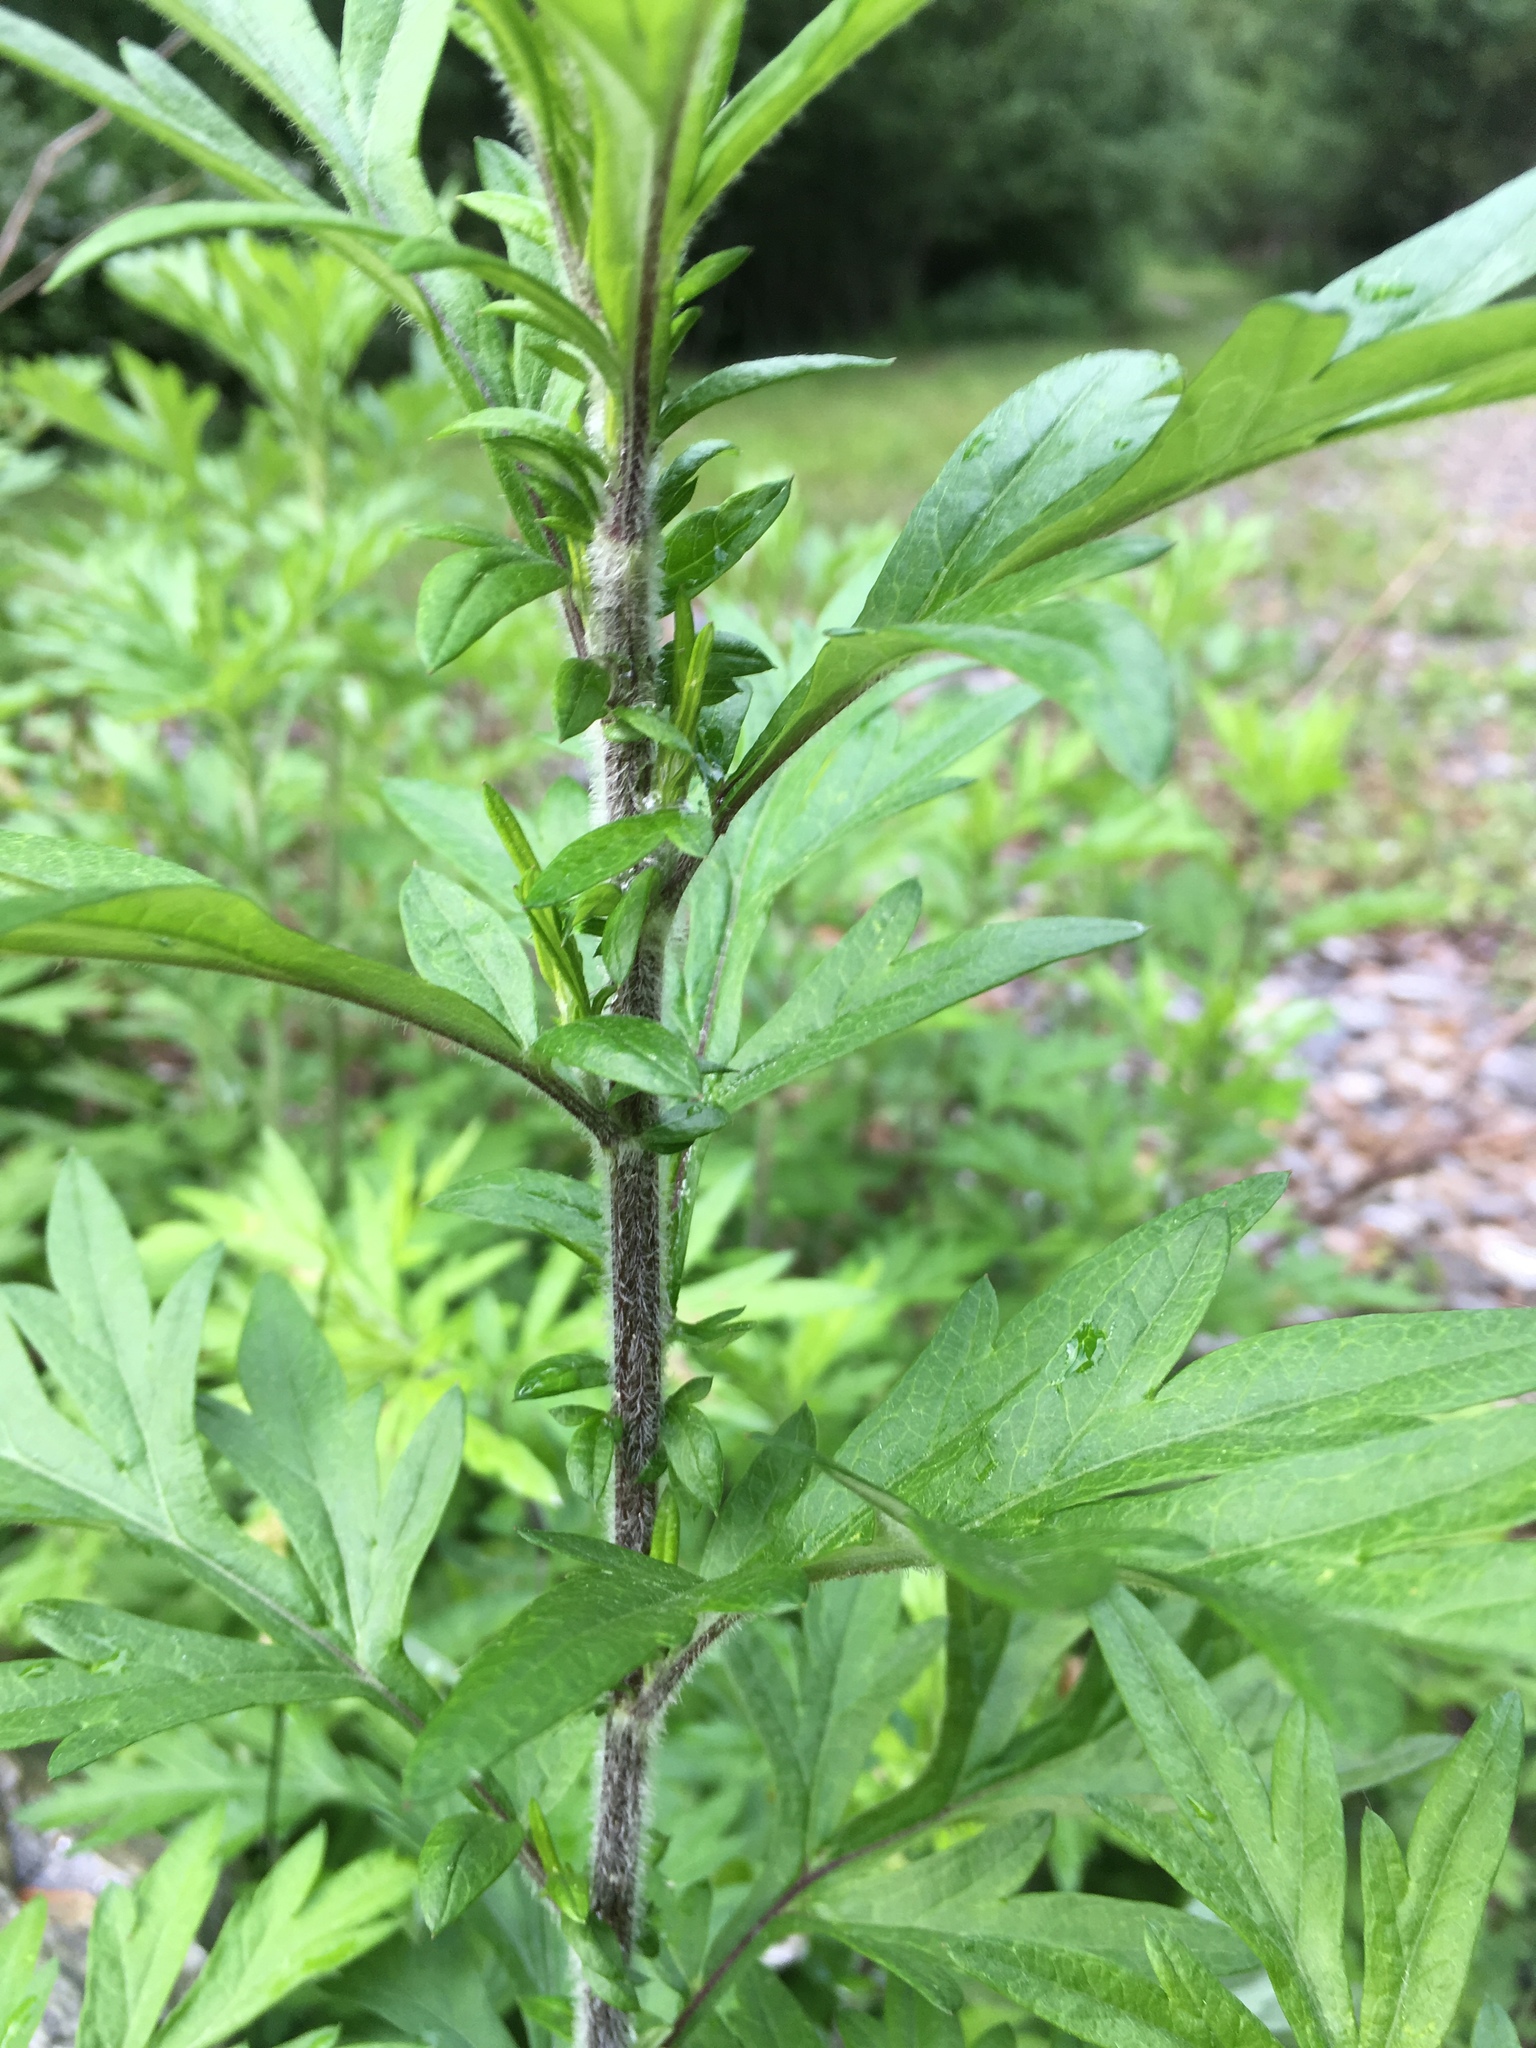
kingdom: Plantae
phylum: Tracheophyta
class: Magnoliopsida
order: Asterales
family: Asteraceae
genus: Artemisia
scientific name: Artemisia vulgaris
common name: Mugwort
